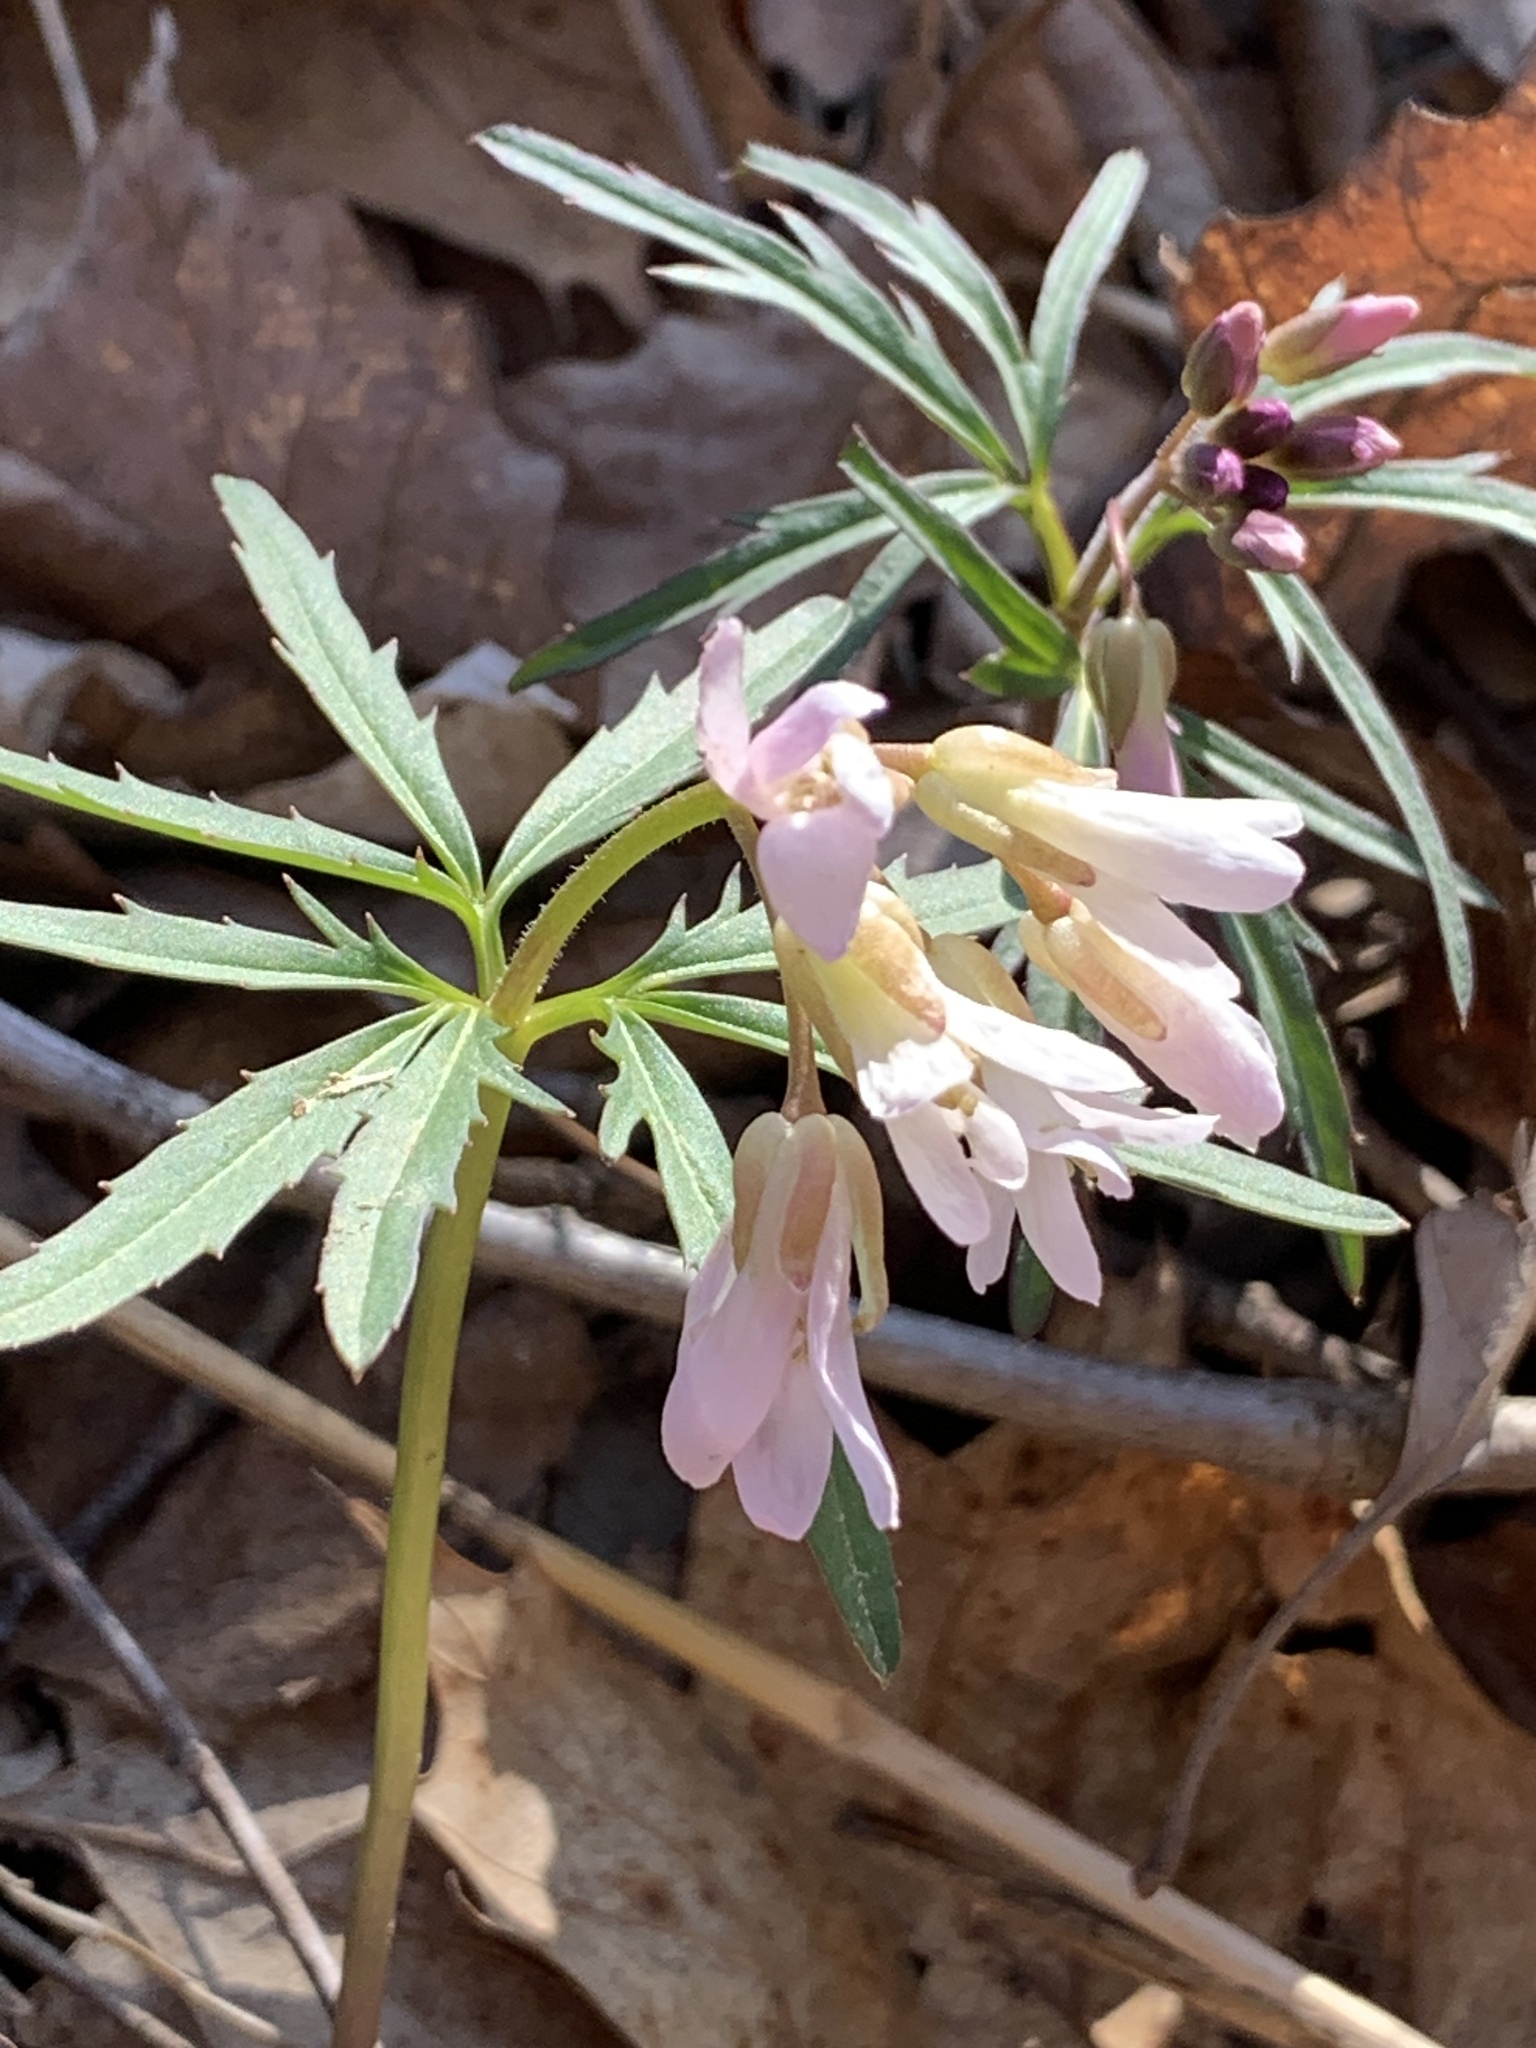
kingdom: Plantae
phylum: Tracheophyta
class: Magnoliopsida
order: Brassicales
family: Brassicaceae
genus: Cardamine
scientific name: Cardamine concatenata
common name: Cut-leaf toothcup
